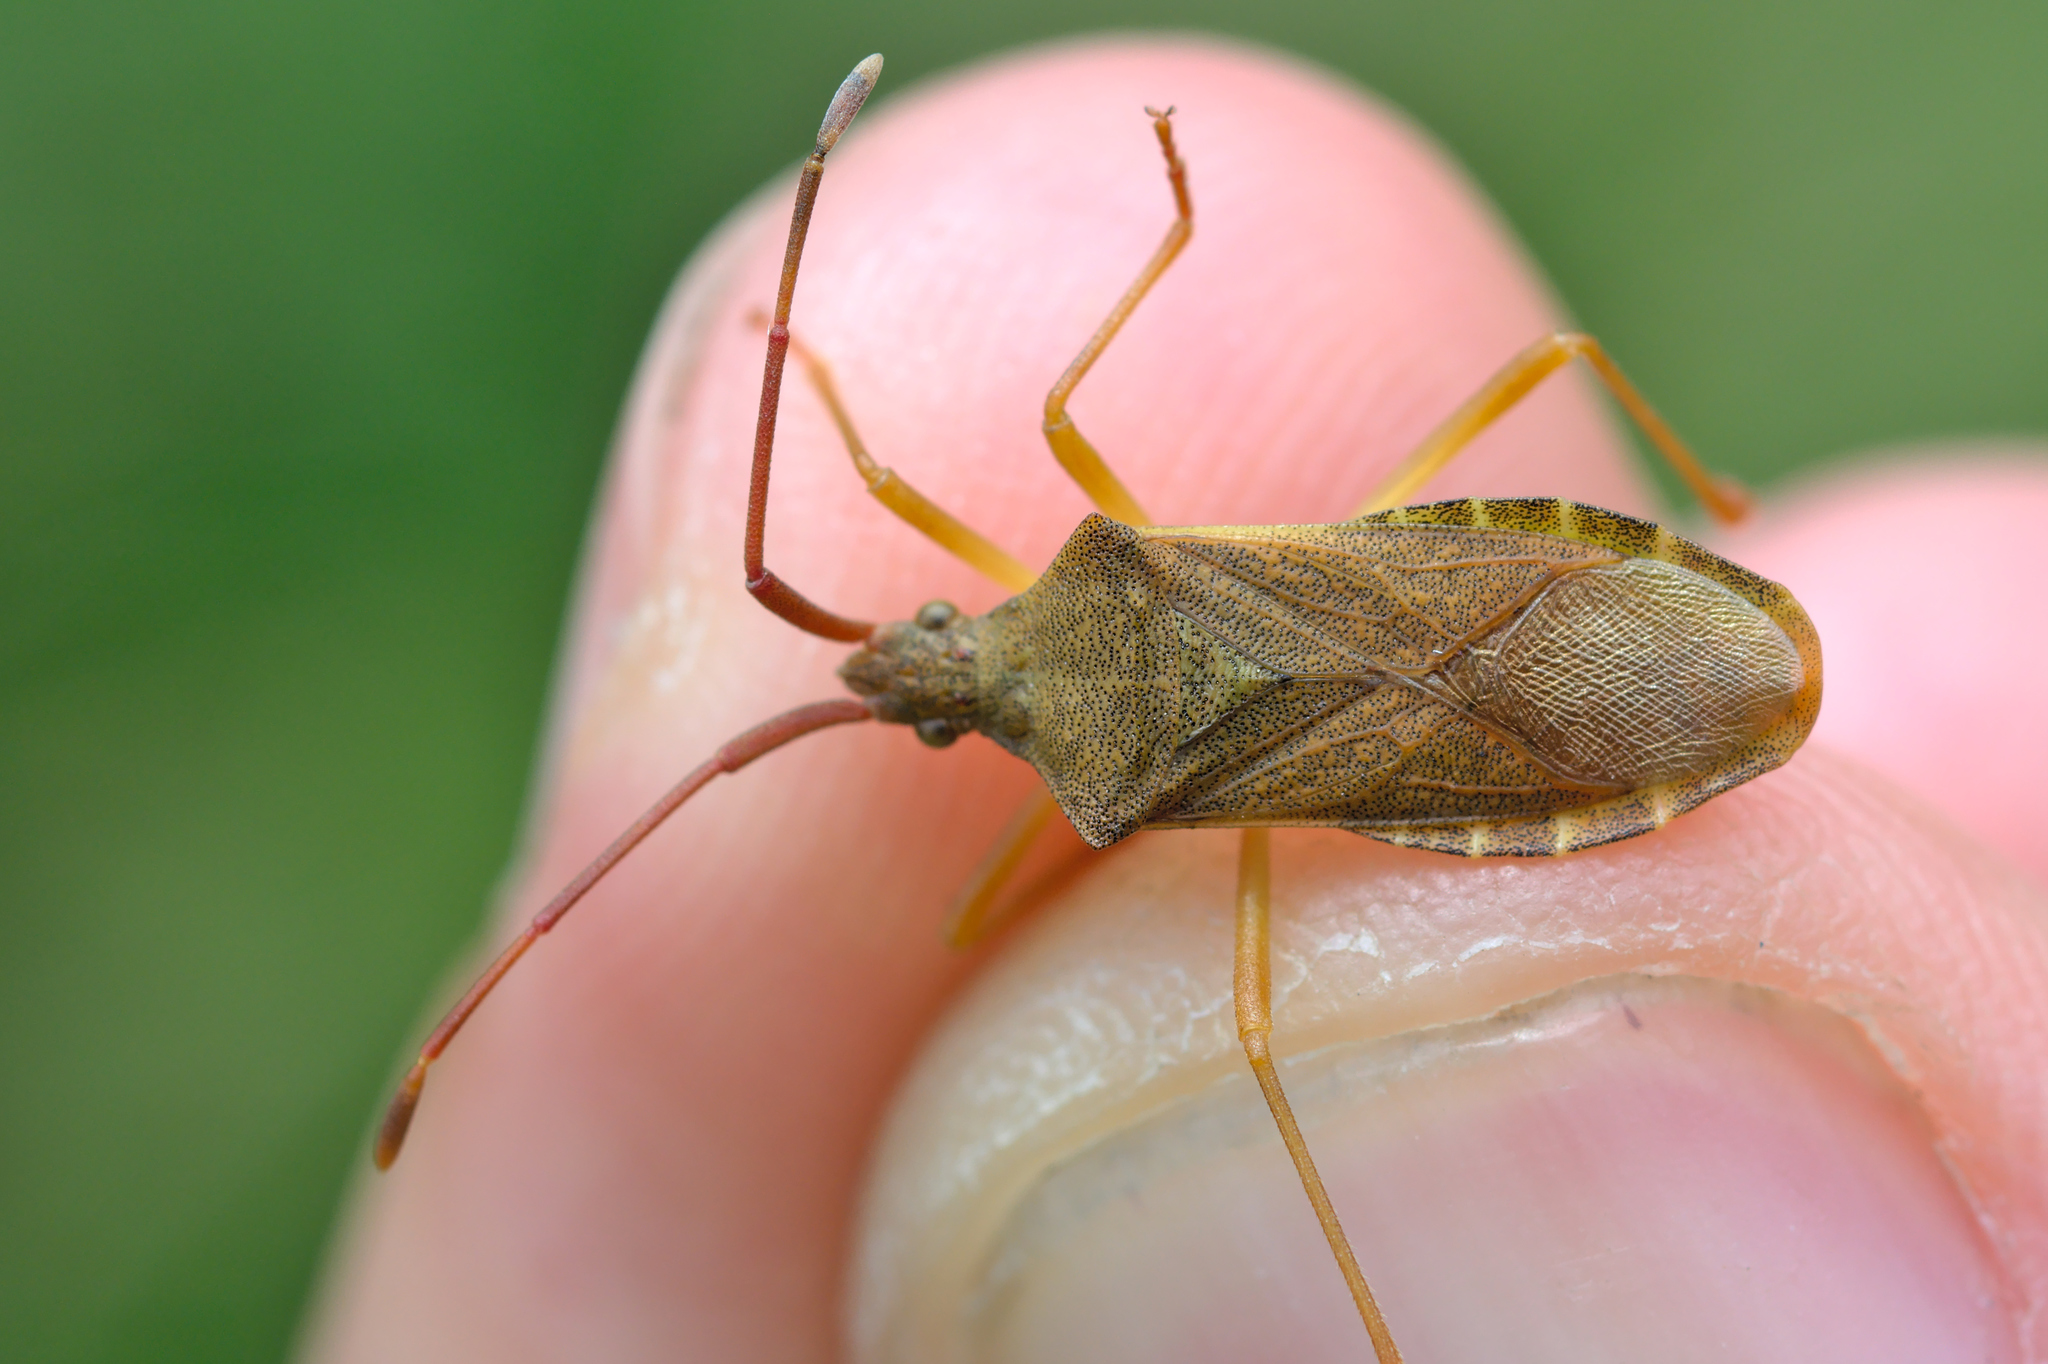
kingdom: Animalia
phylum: Arthropoda
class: Insecta
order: Hemiptera
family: Coreidae
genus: Gonocerus
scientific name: Gonocerus acuteangulatus
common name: Box bug
